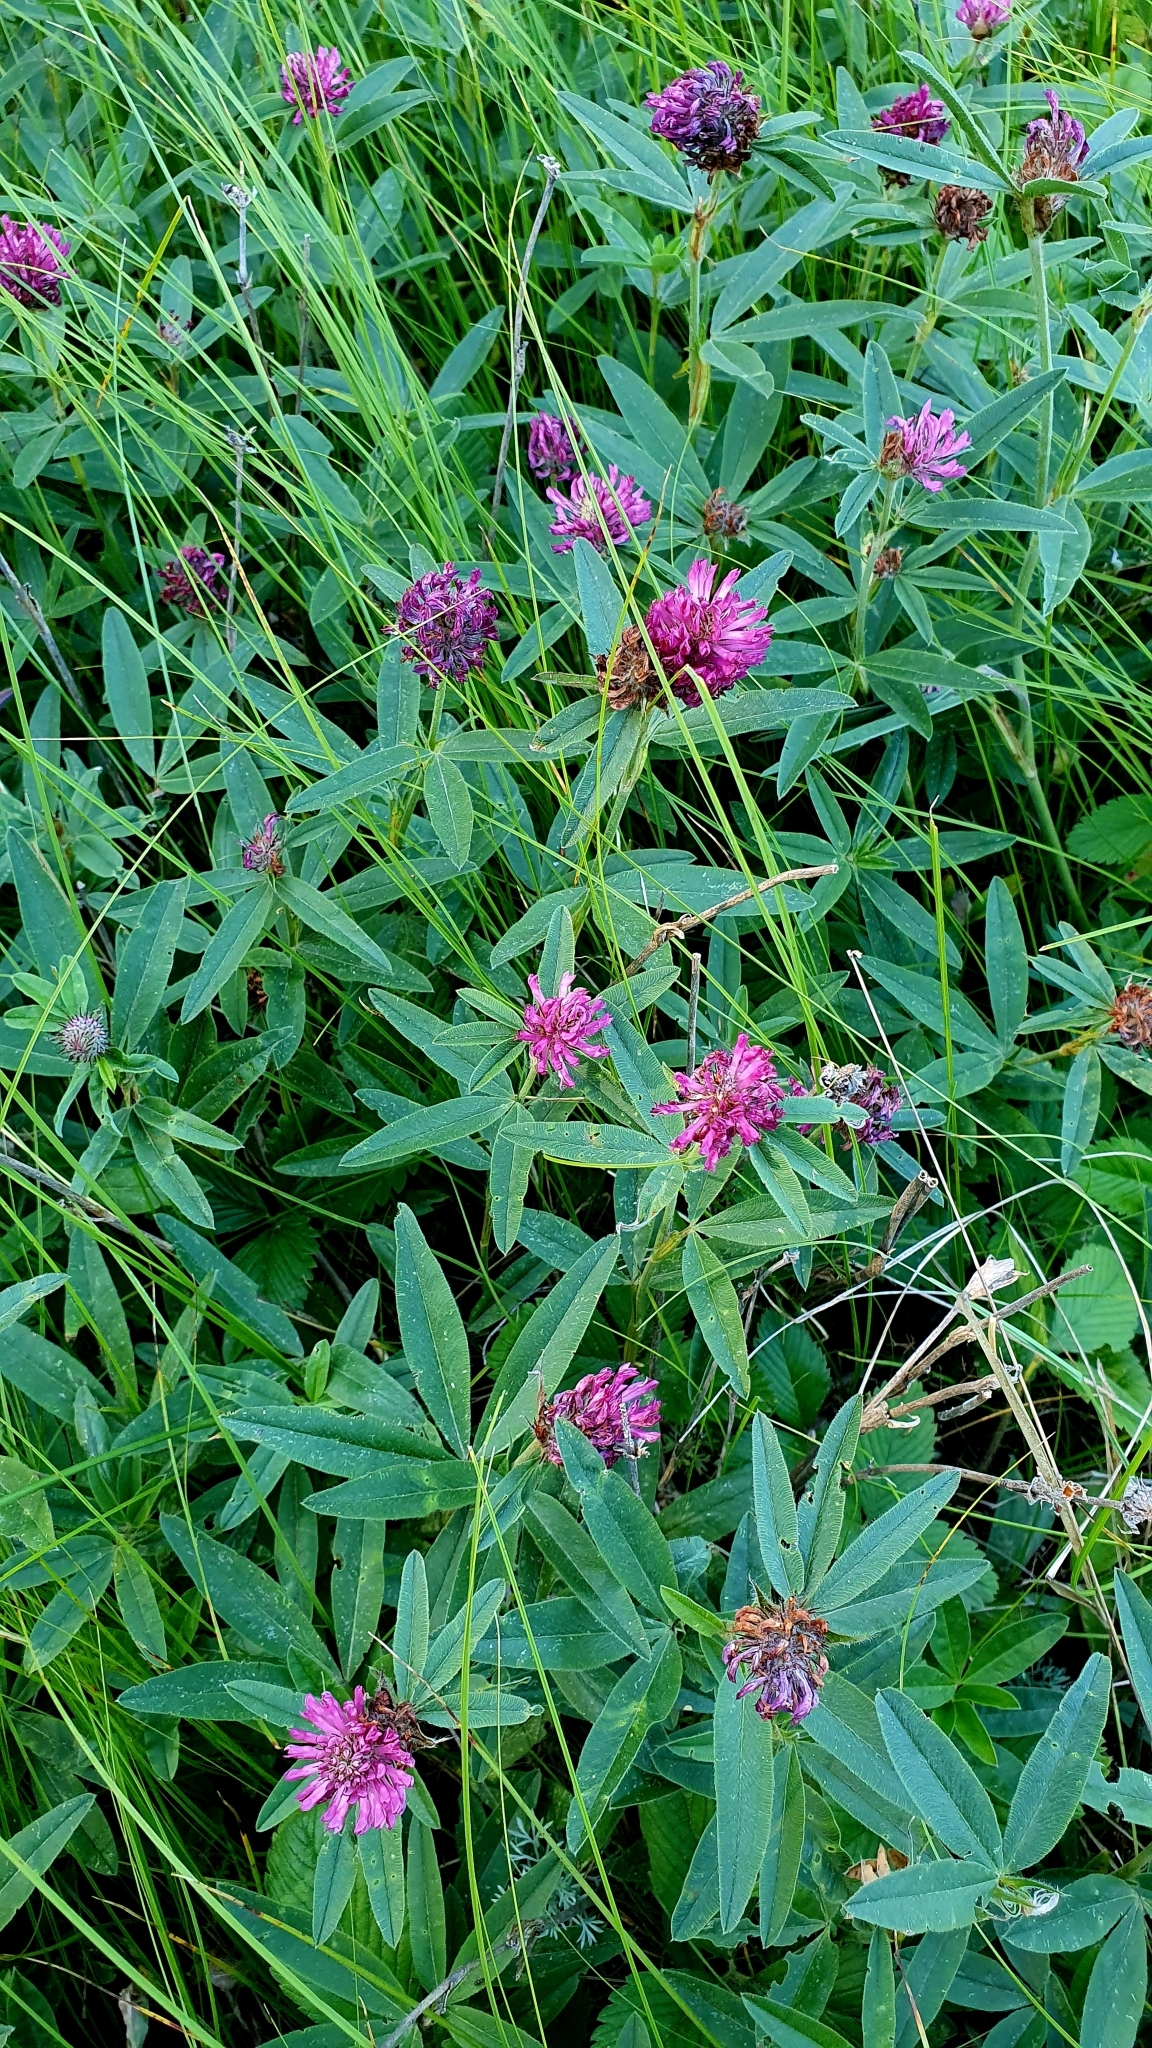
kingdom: Plantae
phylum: Tracheophyta
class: Magnoliopsida
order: Fabales
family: Fabaceae
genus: Trifolium
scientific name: Trifolium alpestre
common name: Owl-head clover
